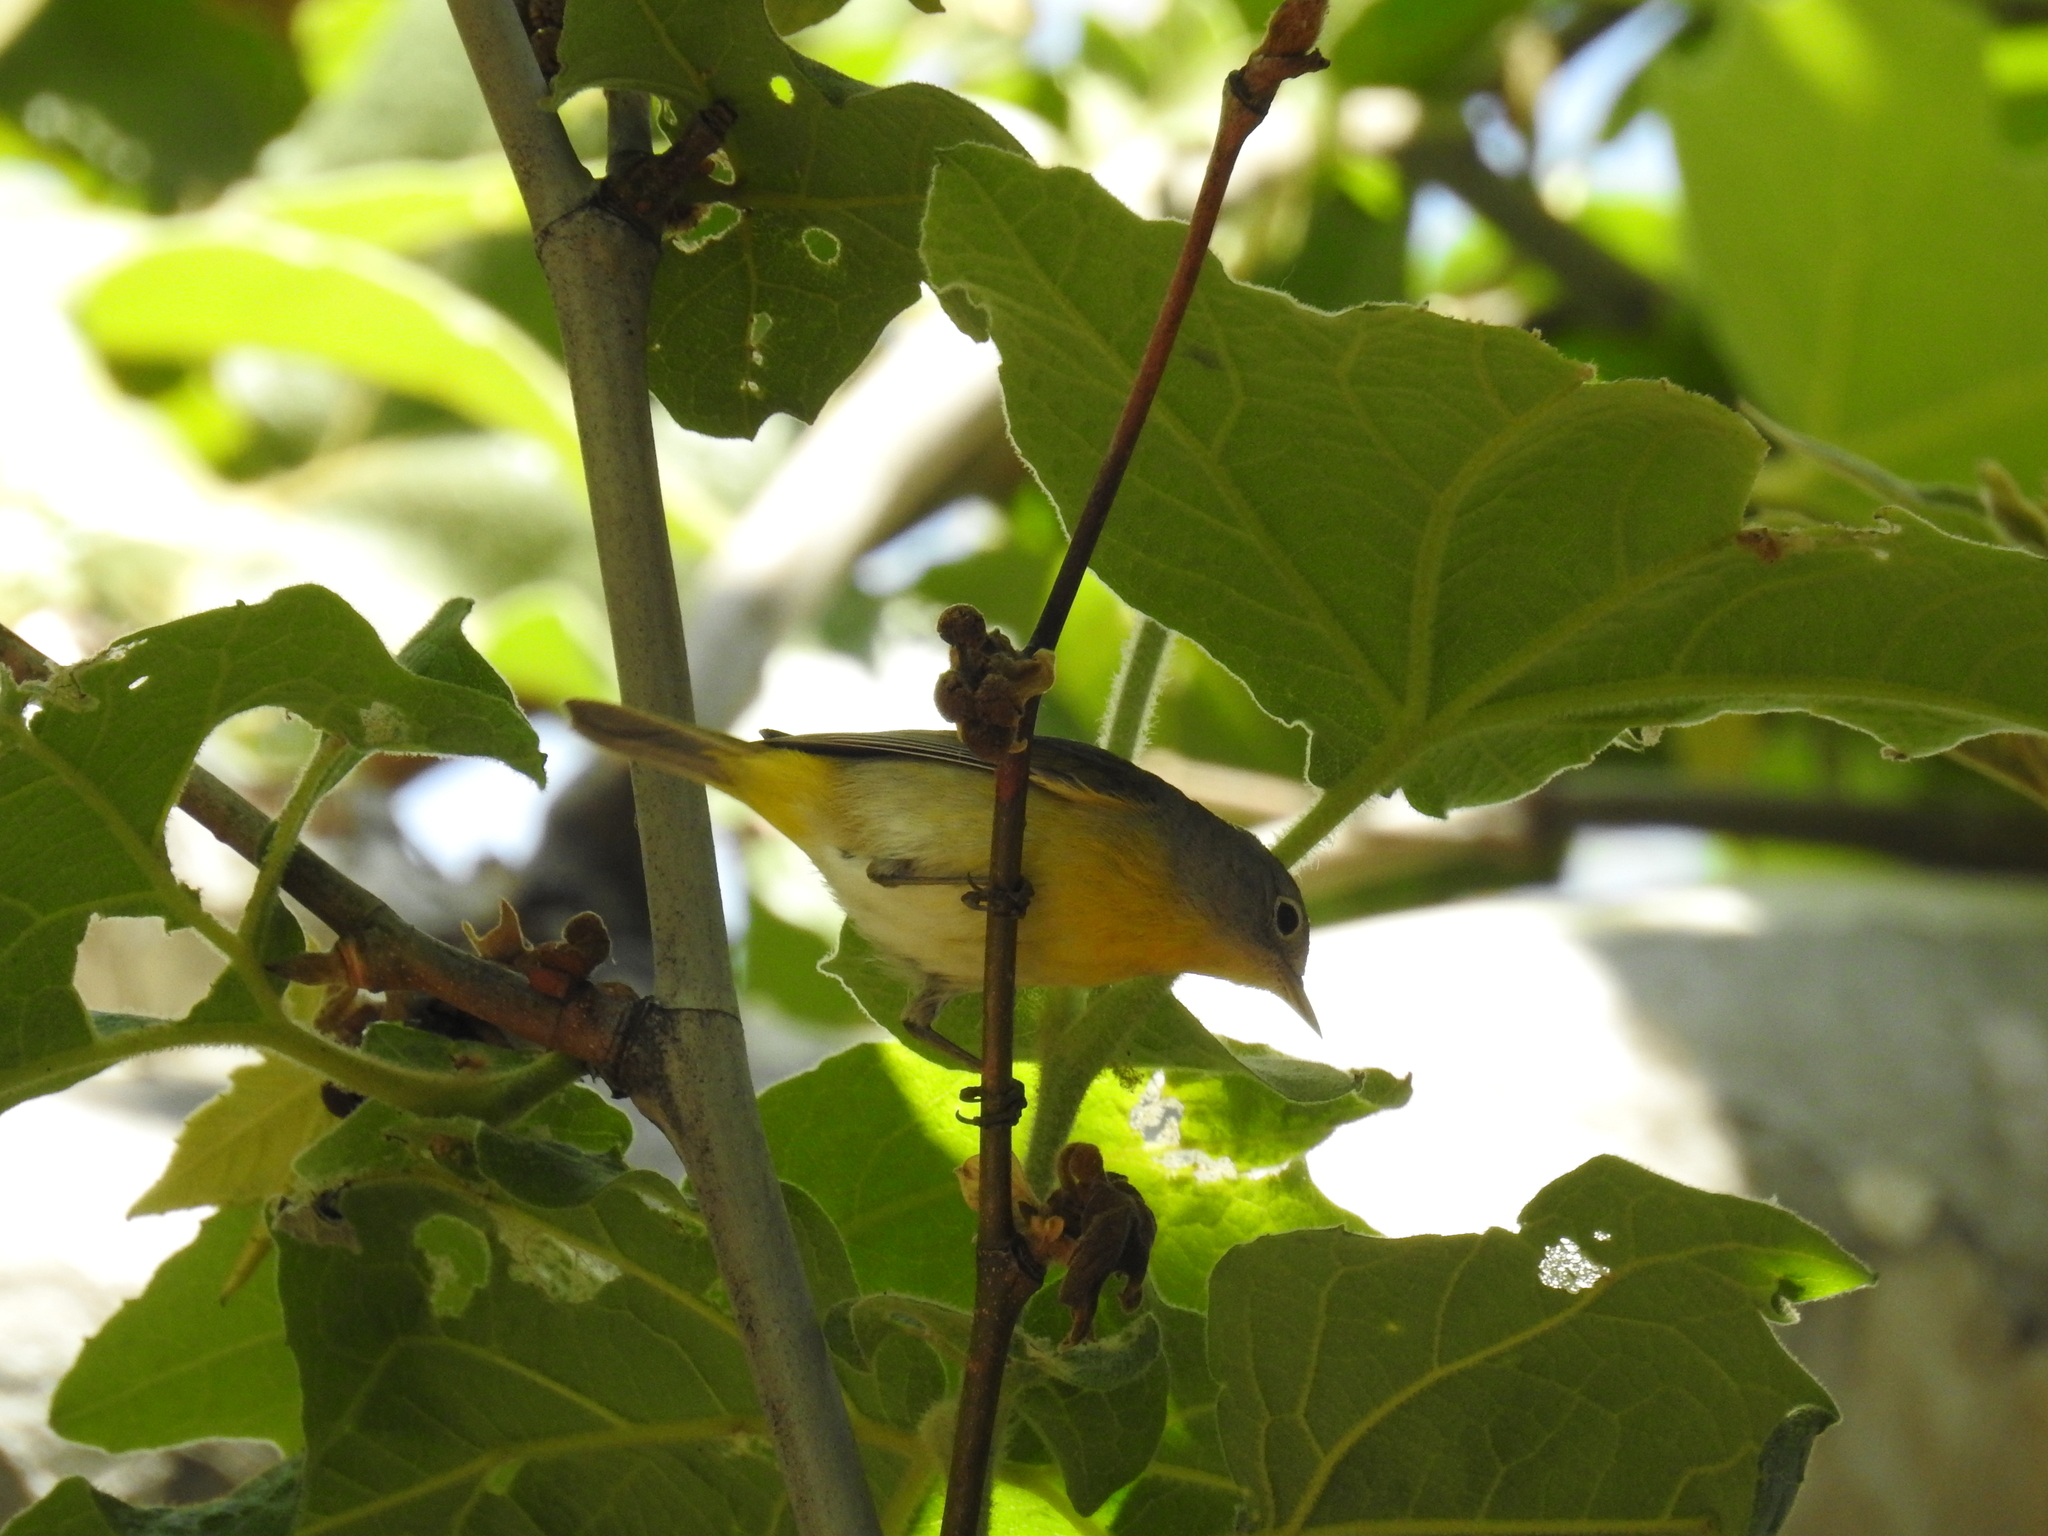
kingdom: Animalia
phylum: Chordata
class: Aves
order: Passeriformes
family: Parulidae
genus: Leiothlypis
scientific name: Leiothlypis ruficapilla
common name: Nashville warbler
